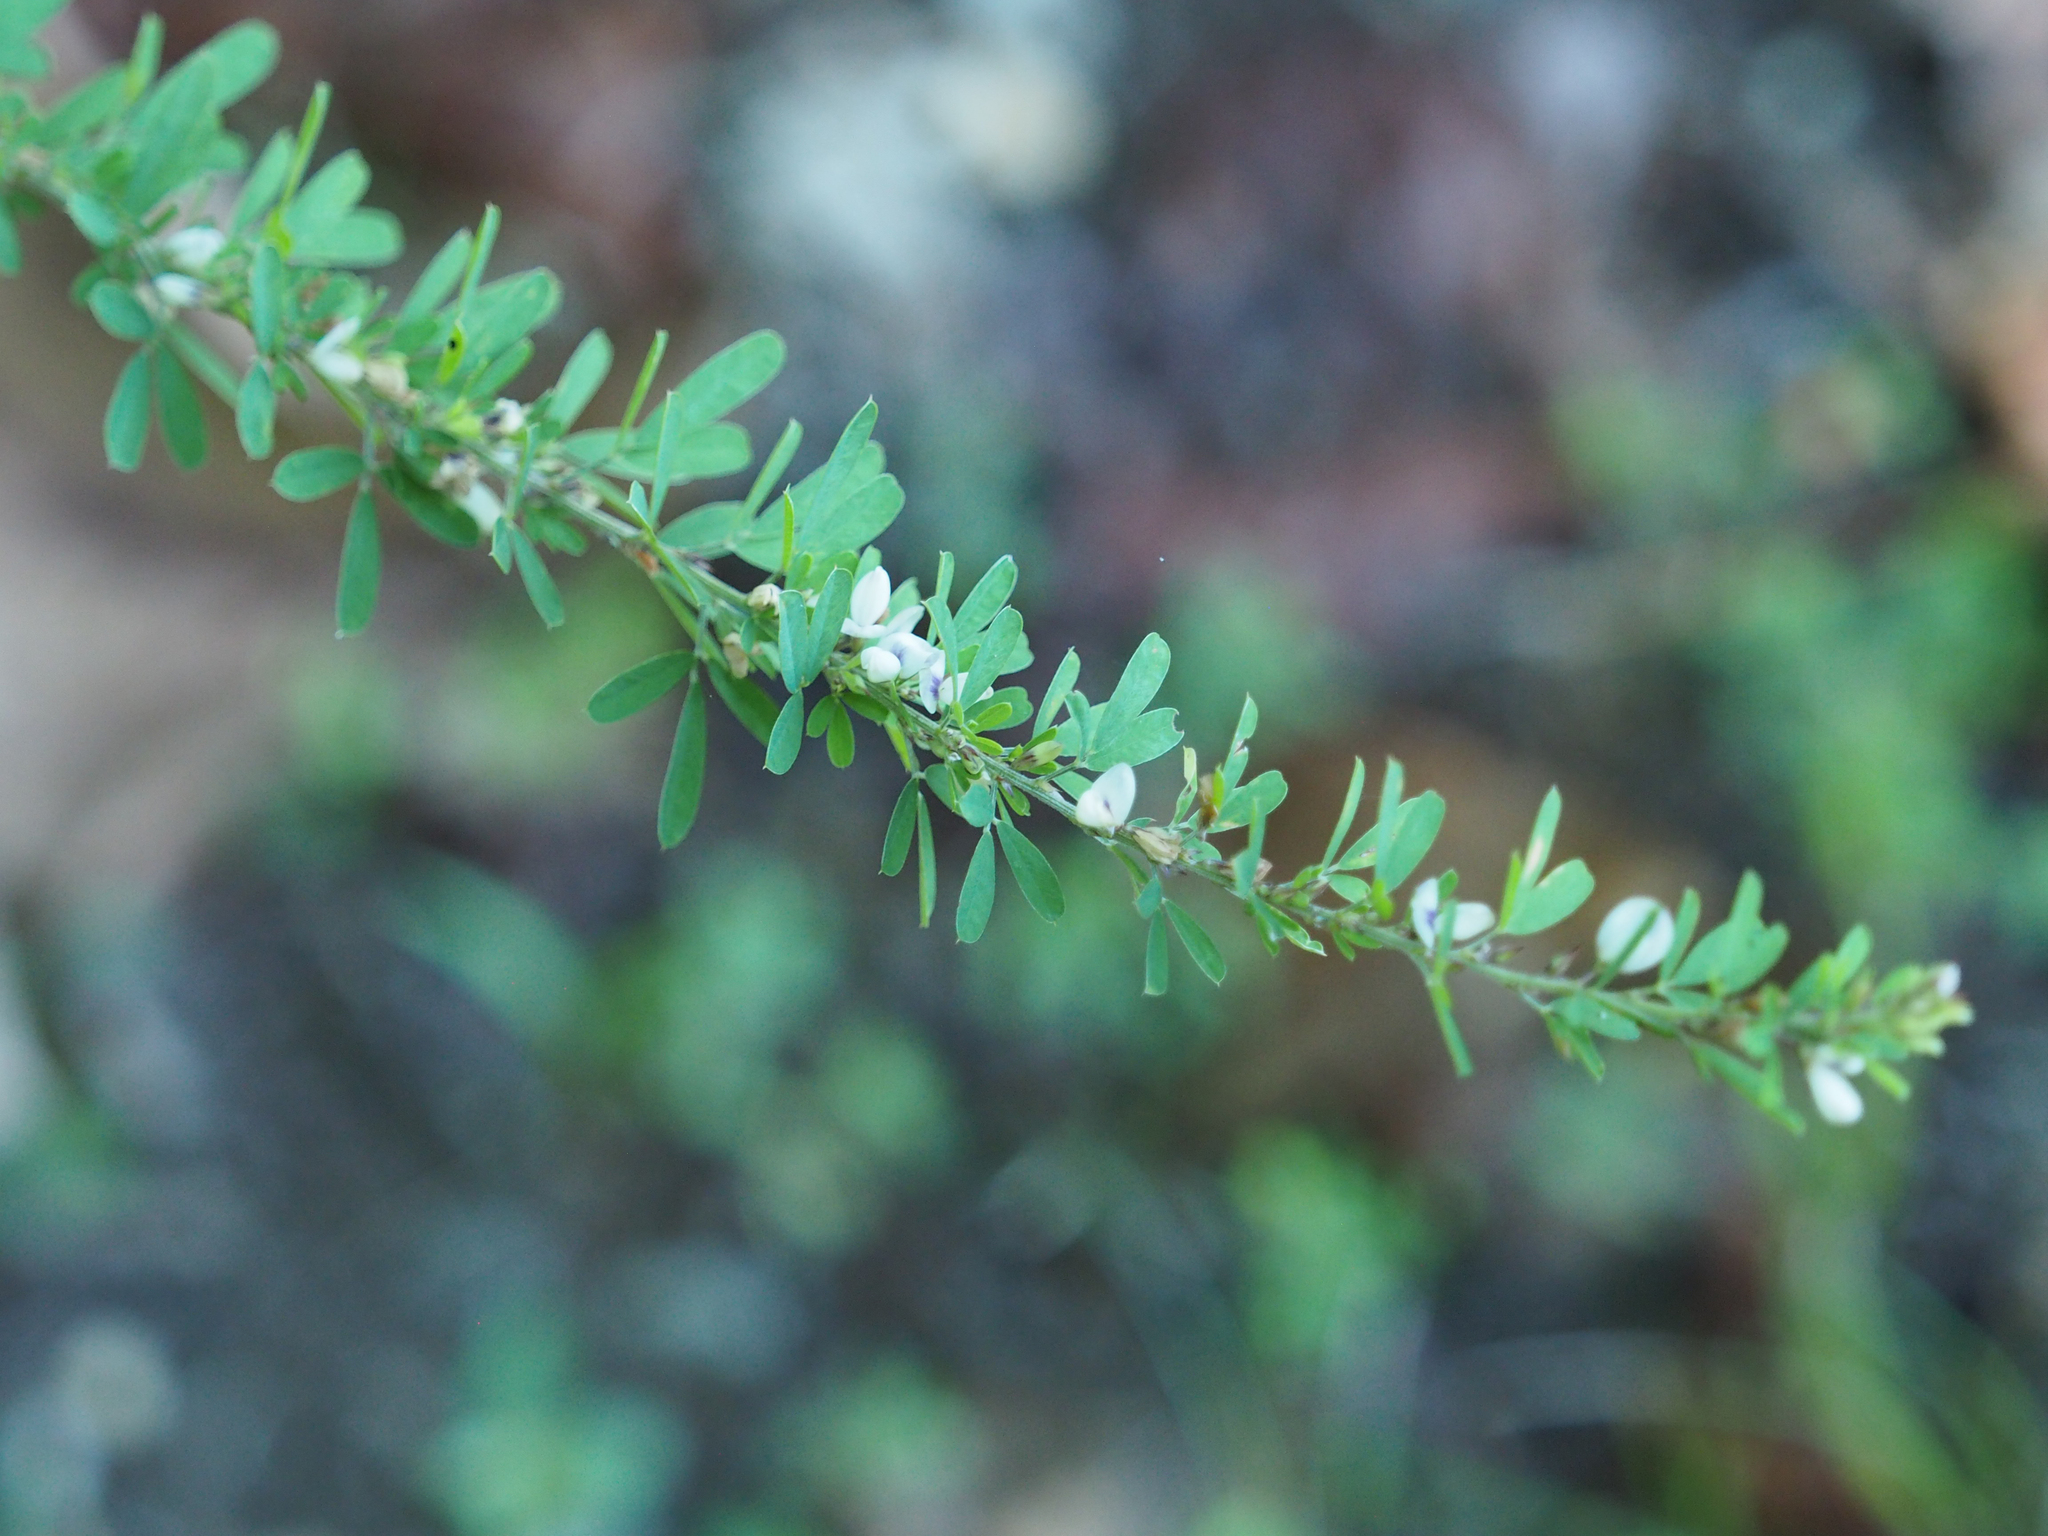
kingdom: Plantae
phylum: Tracheophyta
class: Magnoliopsida
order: Fabales
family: Fabaceae
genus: Lespedeza
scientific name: Lespedeza cuneata
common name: Chinese bush-clover
